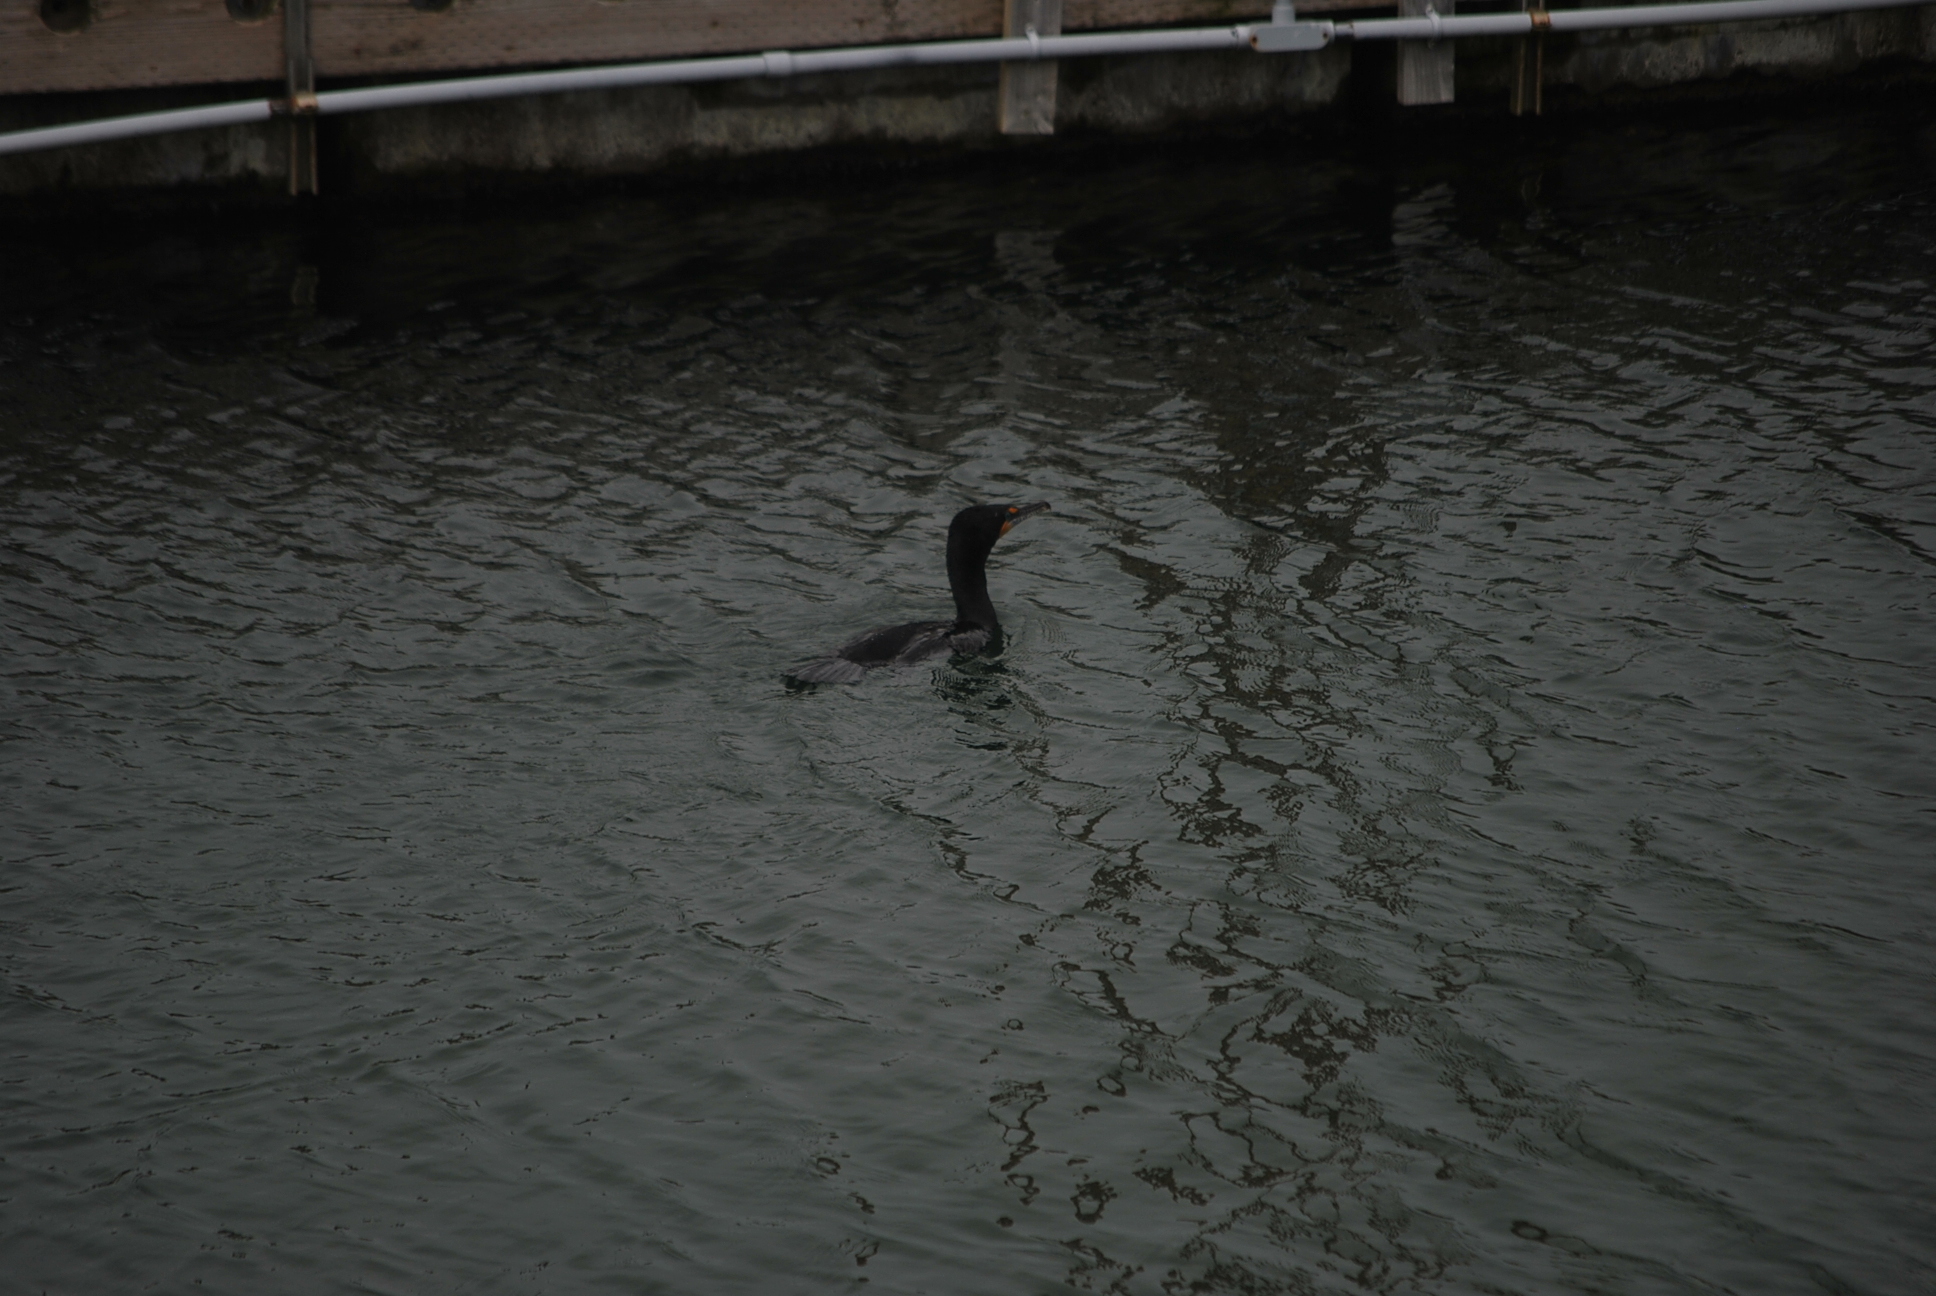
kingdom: Animalia
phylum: Chordata
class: Aves
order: Suliformes
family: Phalacrocoracidae
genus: Phalacrocorax
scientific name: Phalacrocorax auritus
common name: Double-crested cormorant
